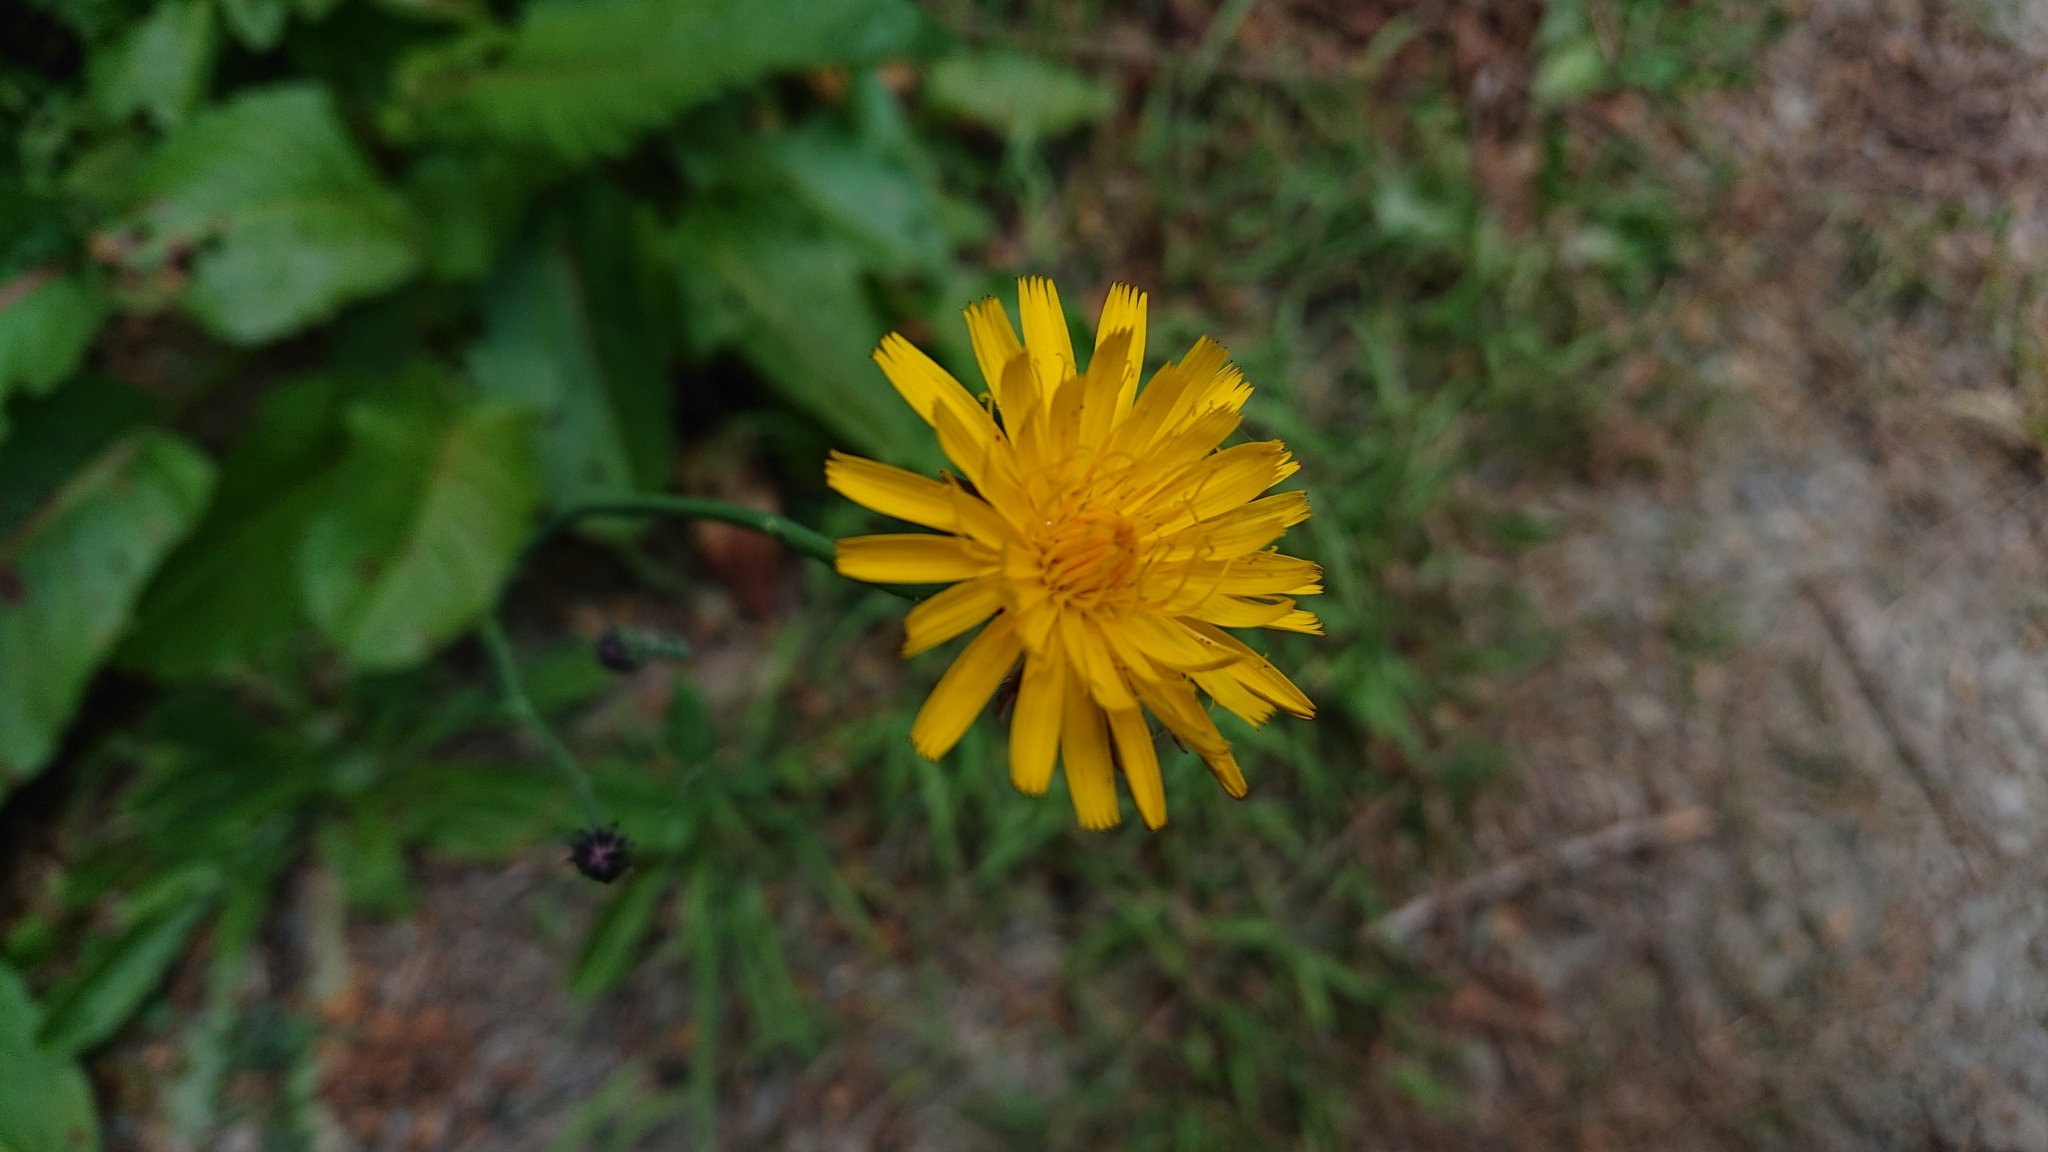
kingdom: Plantae
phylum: Tracheophyta
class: Magnoliopsida
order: Asterales
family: Asteraceae
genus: Hypochaeris
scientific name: Hypochaeris radicata
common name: Flatweed
